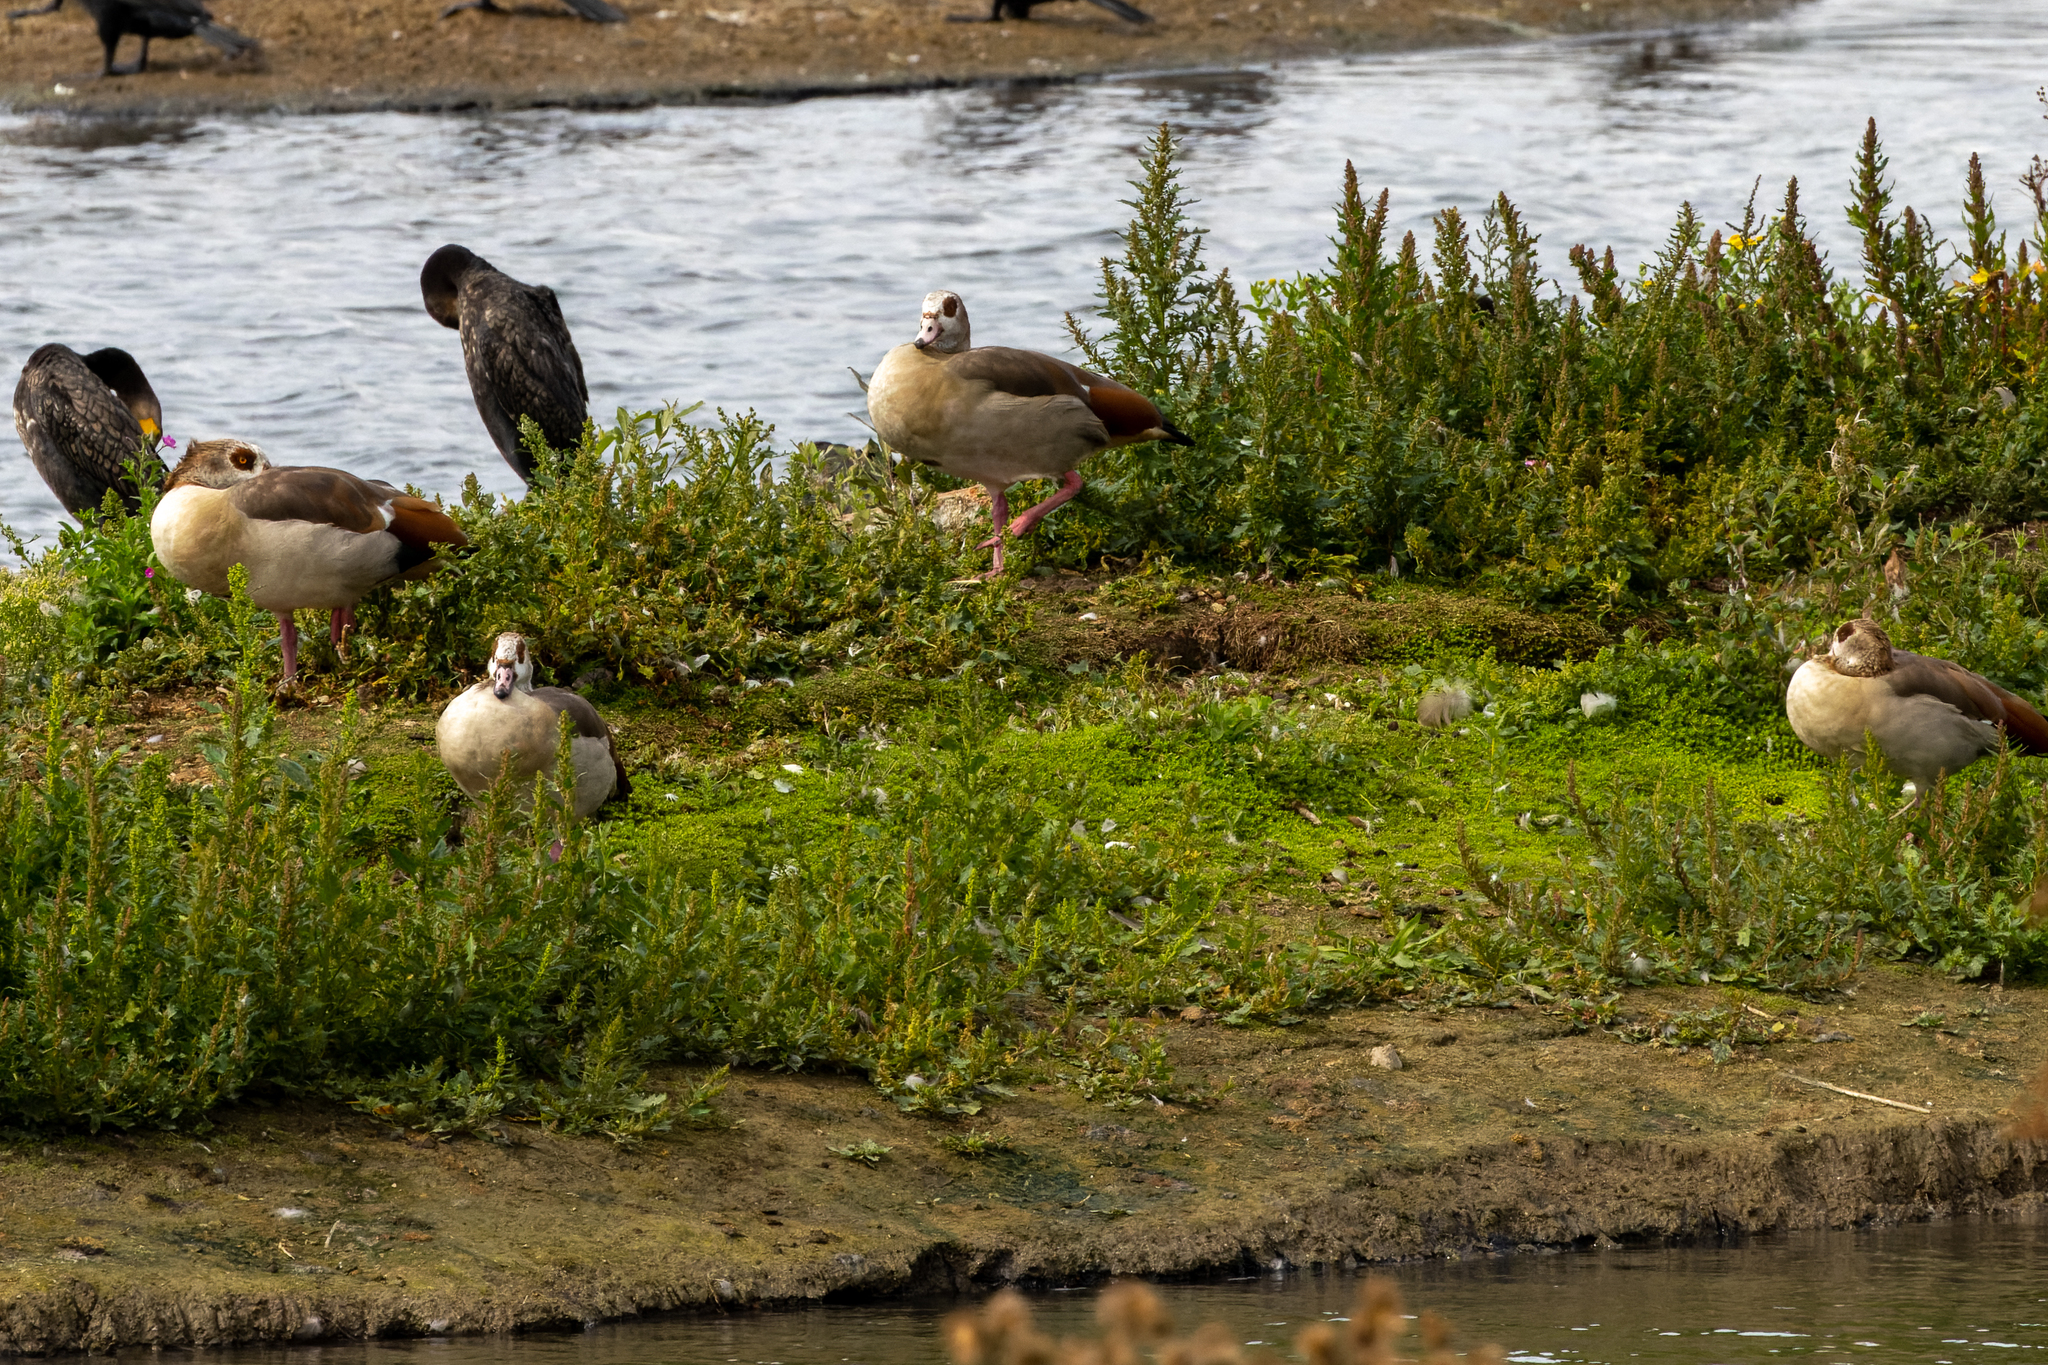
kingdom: Animalia
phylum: Chordata
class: Aves
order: Anseriformes
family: Anatidae
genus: Alopochen
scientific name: Alopochen aegyptiaca
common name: Egyptian goose
